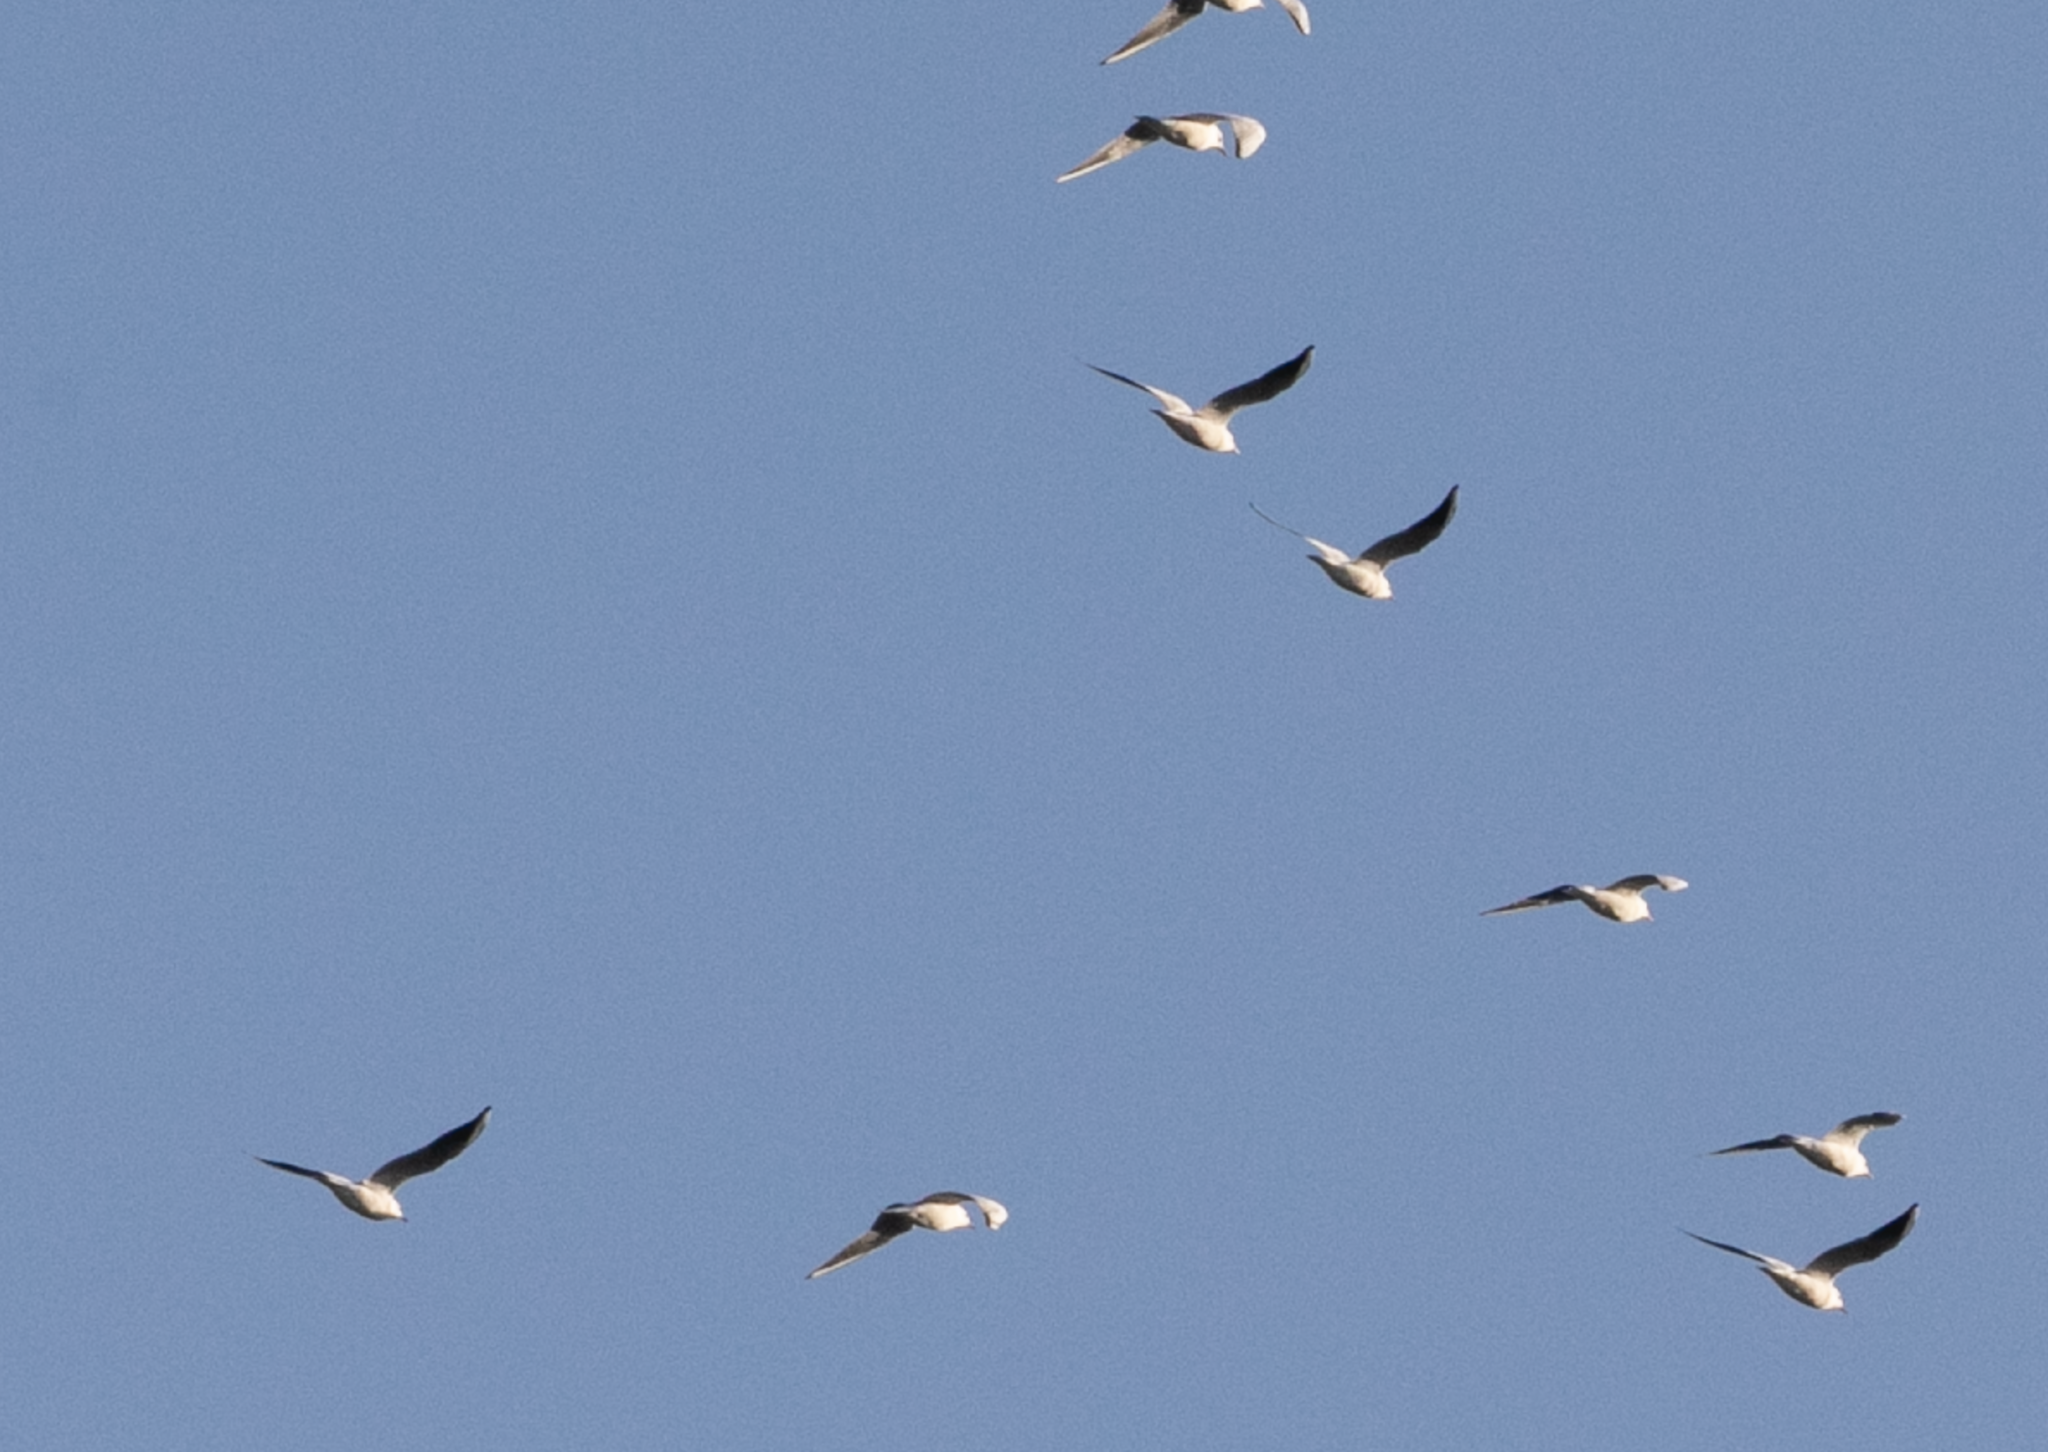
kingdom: Animalia
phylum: Chordata
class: Aves
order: Charadriiformes
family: Laridae
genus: Chroicocephalus
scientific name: Chroicocephalus ridibundus
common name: Black-headed gull
